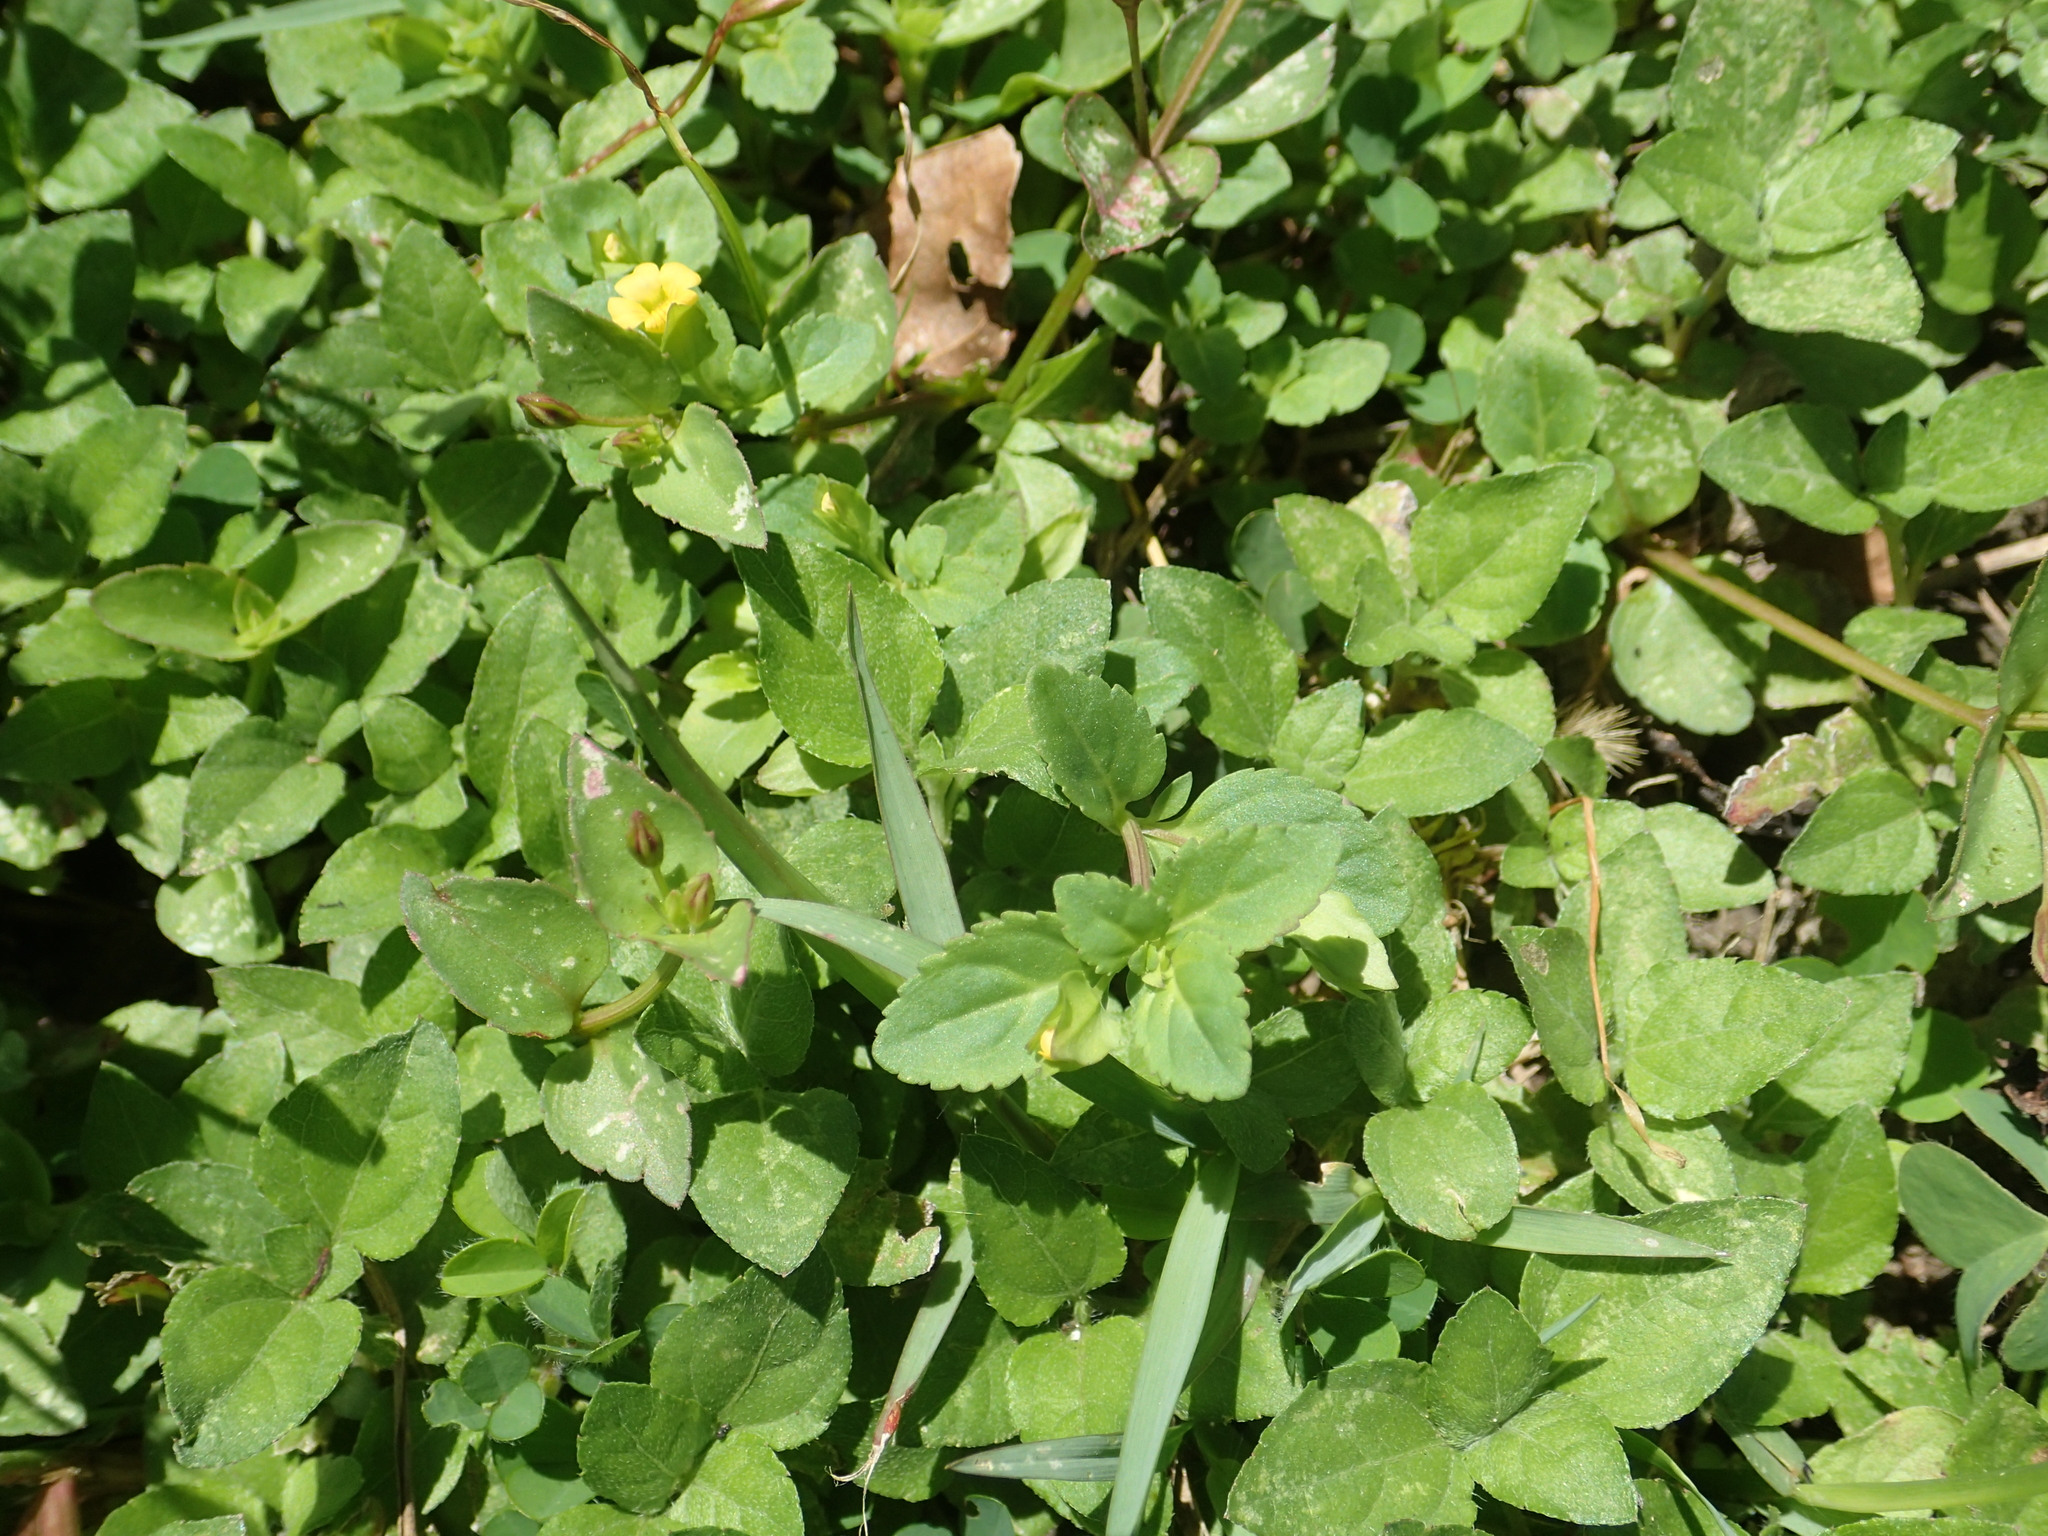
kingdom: Plantae
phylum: Tracheophyta
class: Magnoliopsida
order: Lamiales
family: Plantaginaceae
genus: Mecardonia
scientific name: Mecardonia procumbens
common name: Baby jump-up
